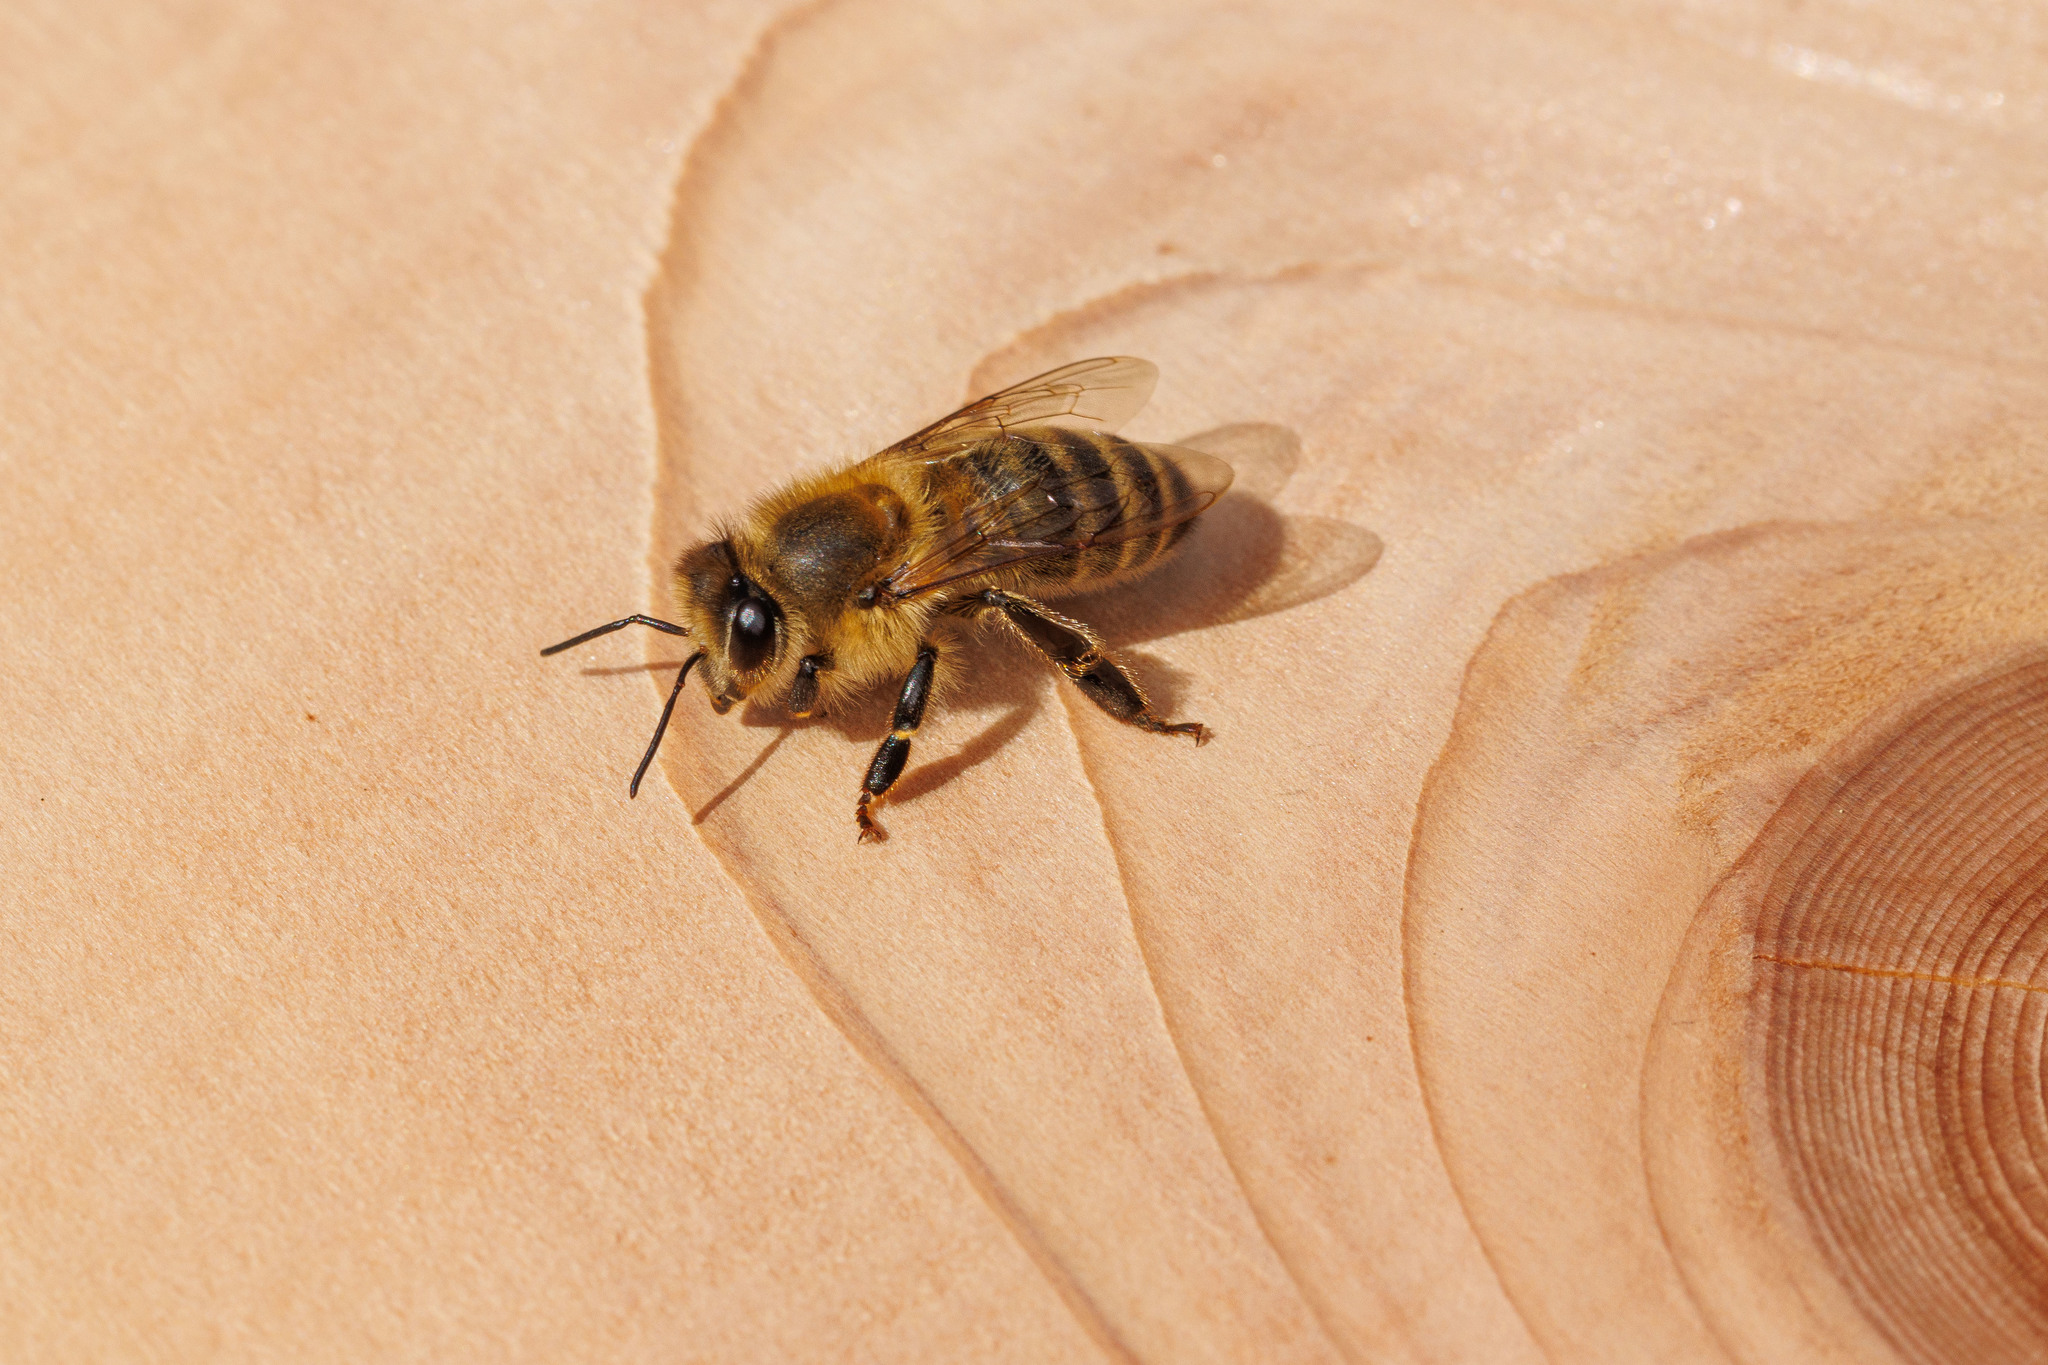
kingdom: Animalia
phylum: Arthropoda
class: Insecta
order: Hymenoptera
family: Apidae
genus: Apis
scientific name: Apis mellifera
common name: Honey bee
